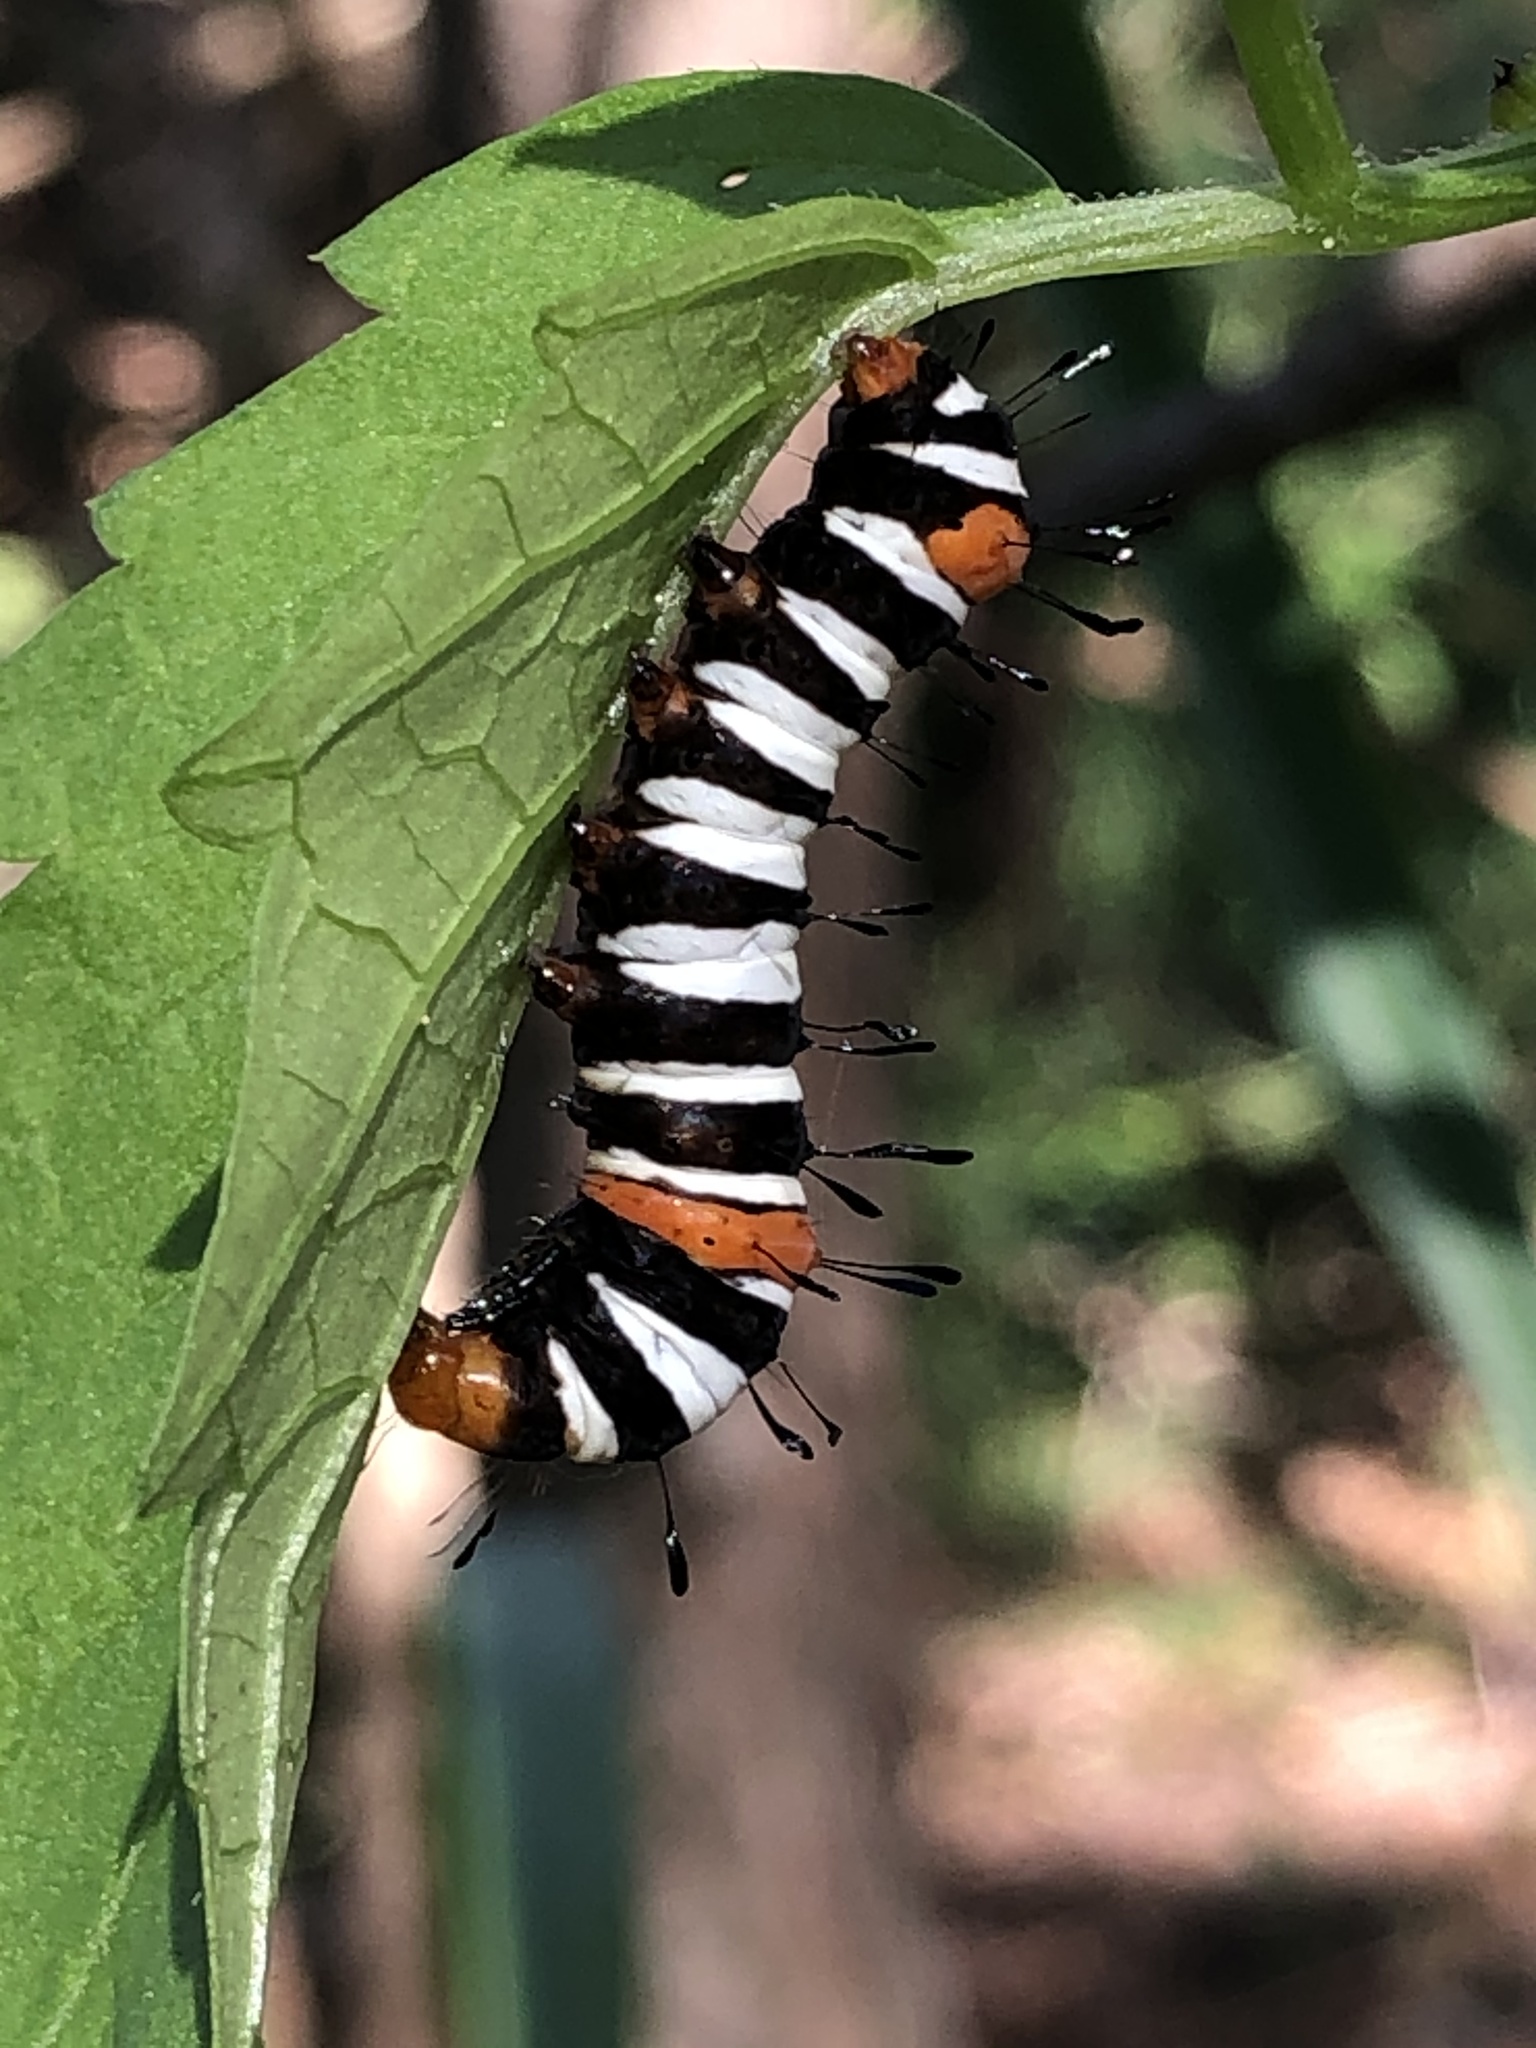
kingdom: Animalia
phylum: Arthropoda
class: Insecta
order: Lepidoptera
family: Noctuidae
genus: Agarista
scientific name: Agarista agricola
